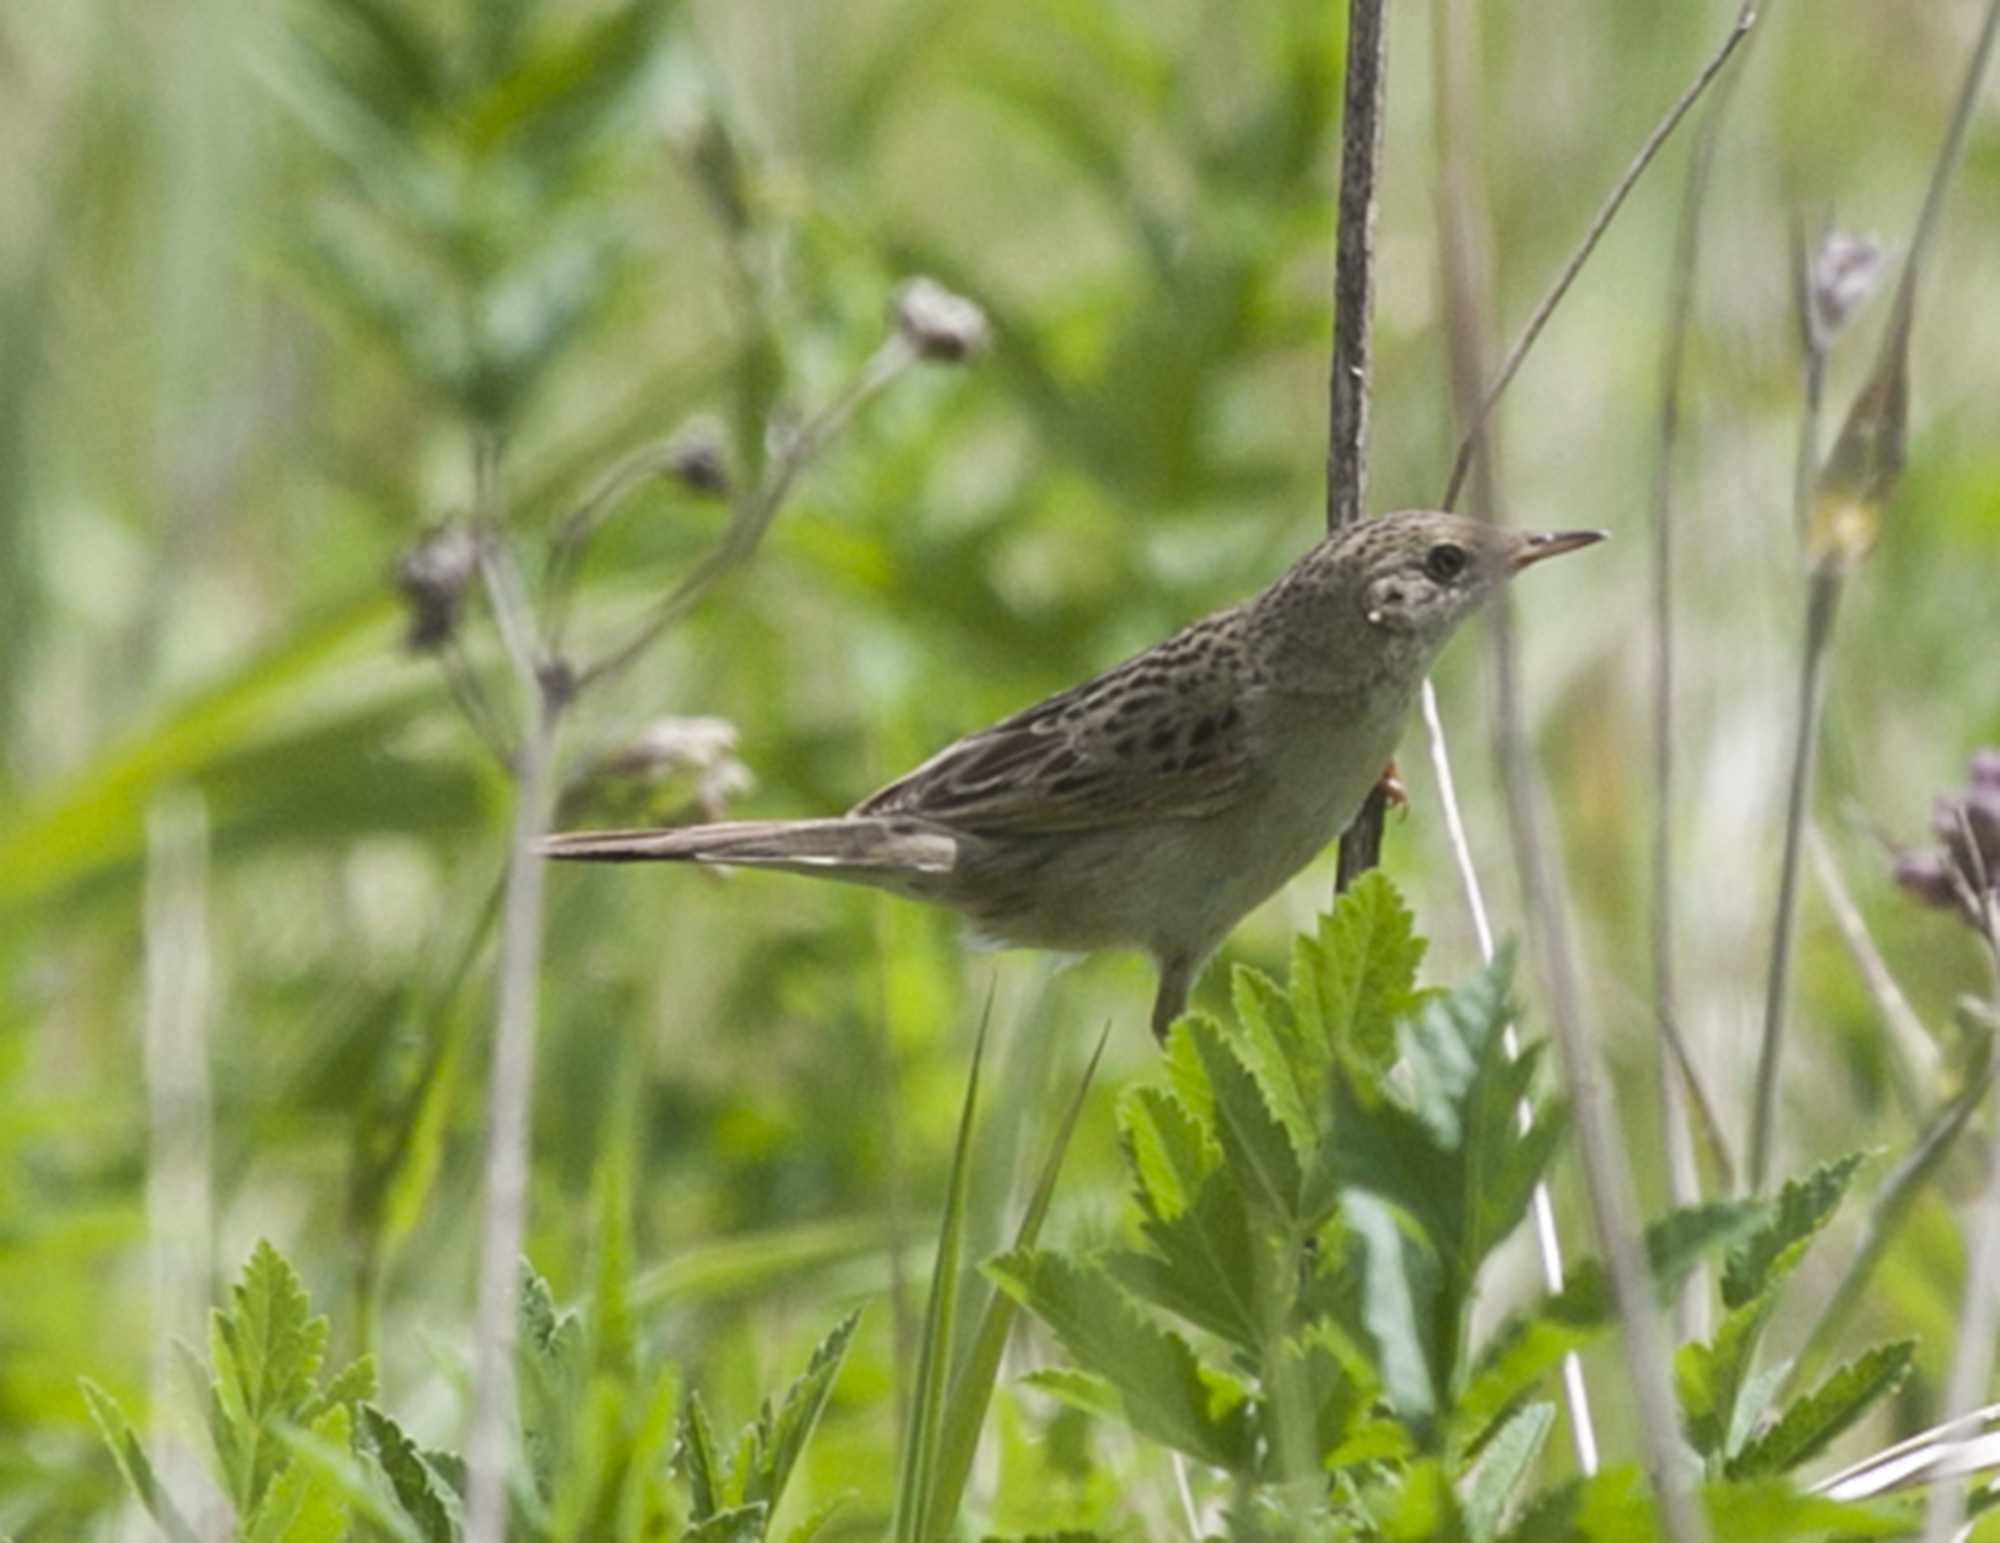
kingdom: Animalia
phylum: Chordata
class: Aves
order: Passeriformes
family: Locustellidae
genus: Locustella
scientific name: Locustella naevia
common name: Common grasshopper warbler
